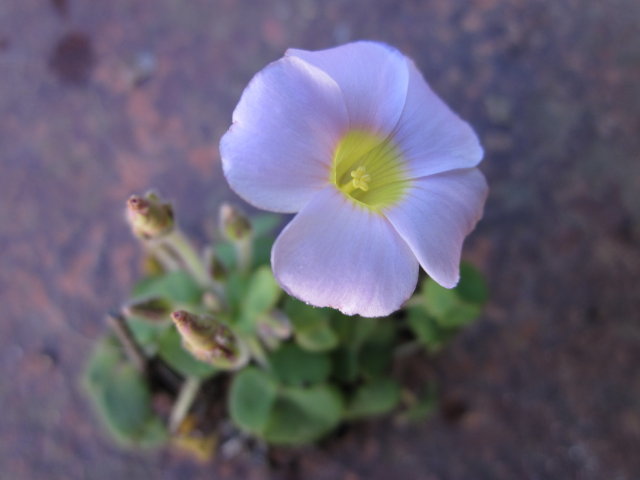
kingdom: Plantae
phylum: Tracheophyta
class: Magnoliopsida
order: Oxalidales
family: Oxalidaceae
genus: Oxalis
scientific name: Oxalis algoensis
